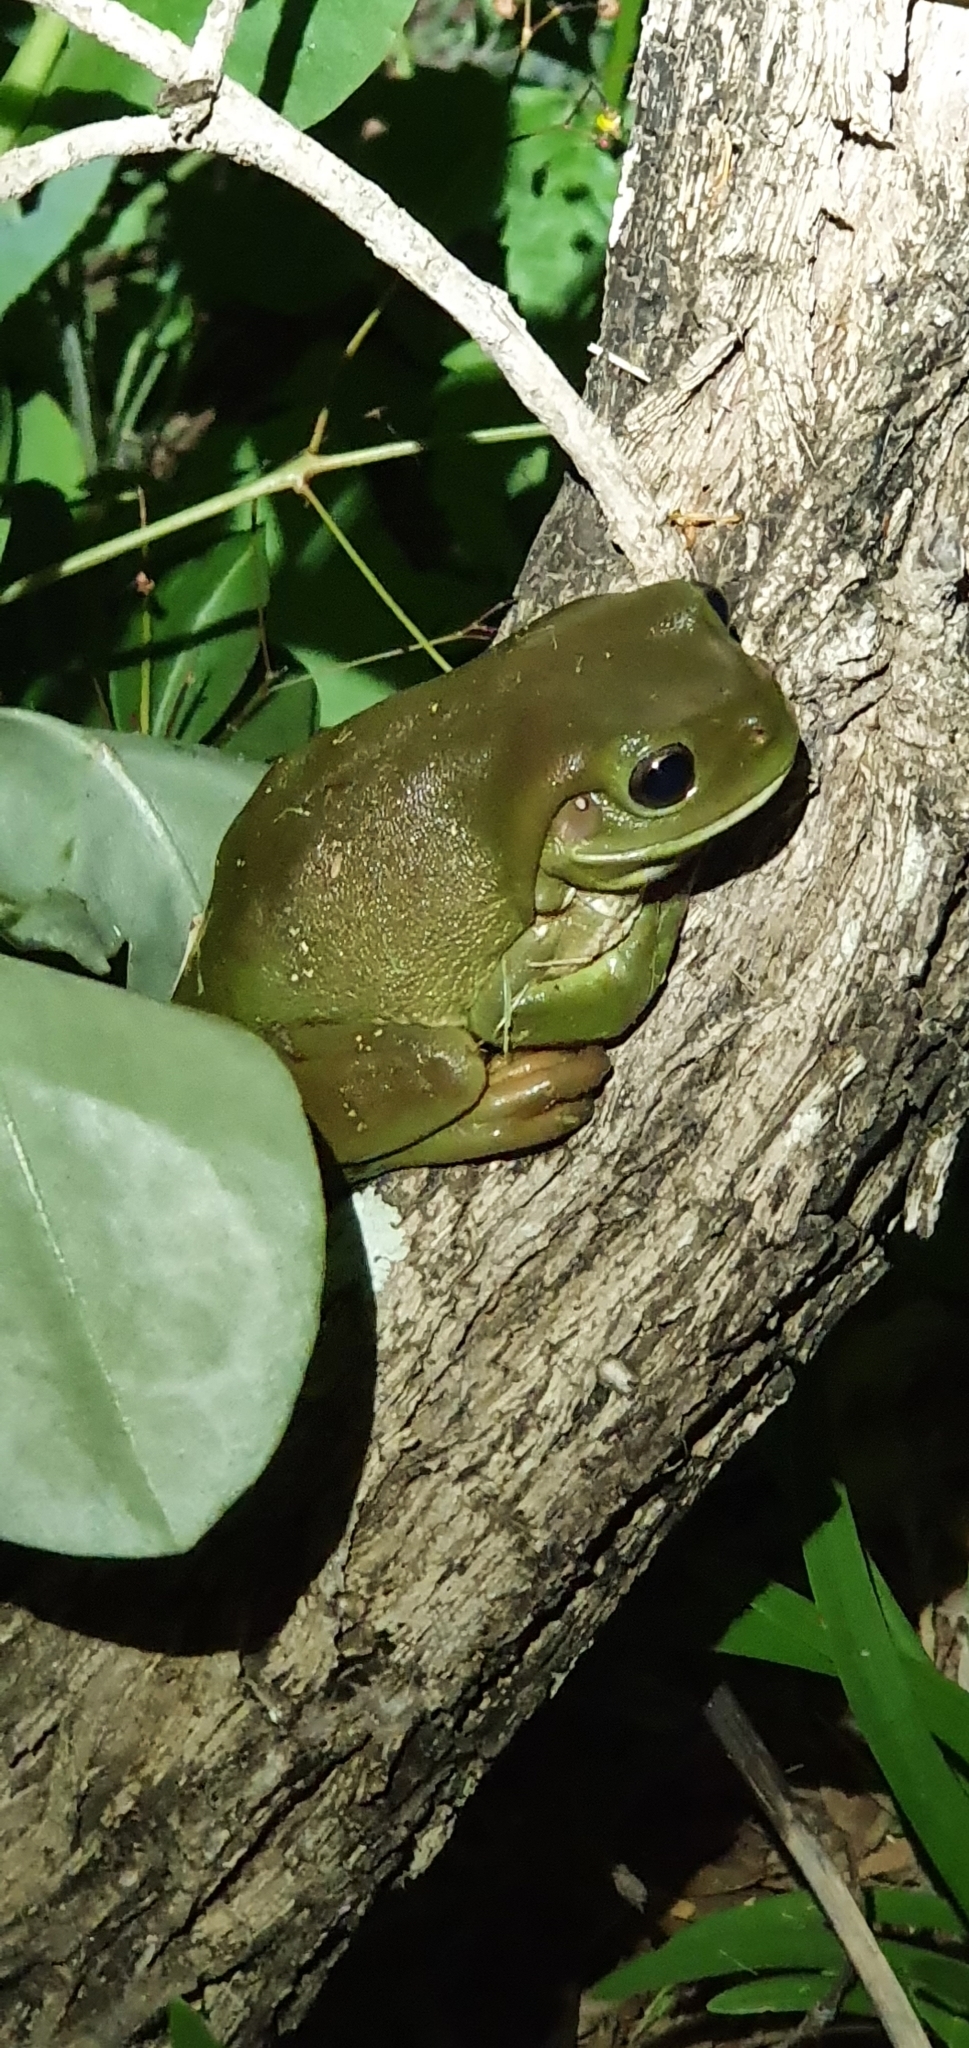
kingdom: Animalia
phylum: Chordata
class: Amphibia
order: Anura
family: Pelodryadidae
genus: Ranoidea
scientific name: Ranoidea caerulea
